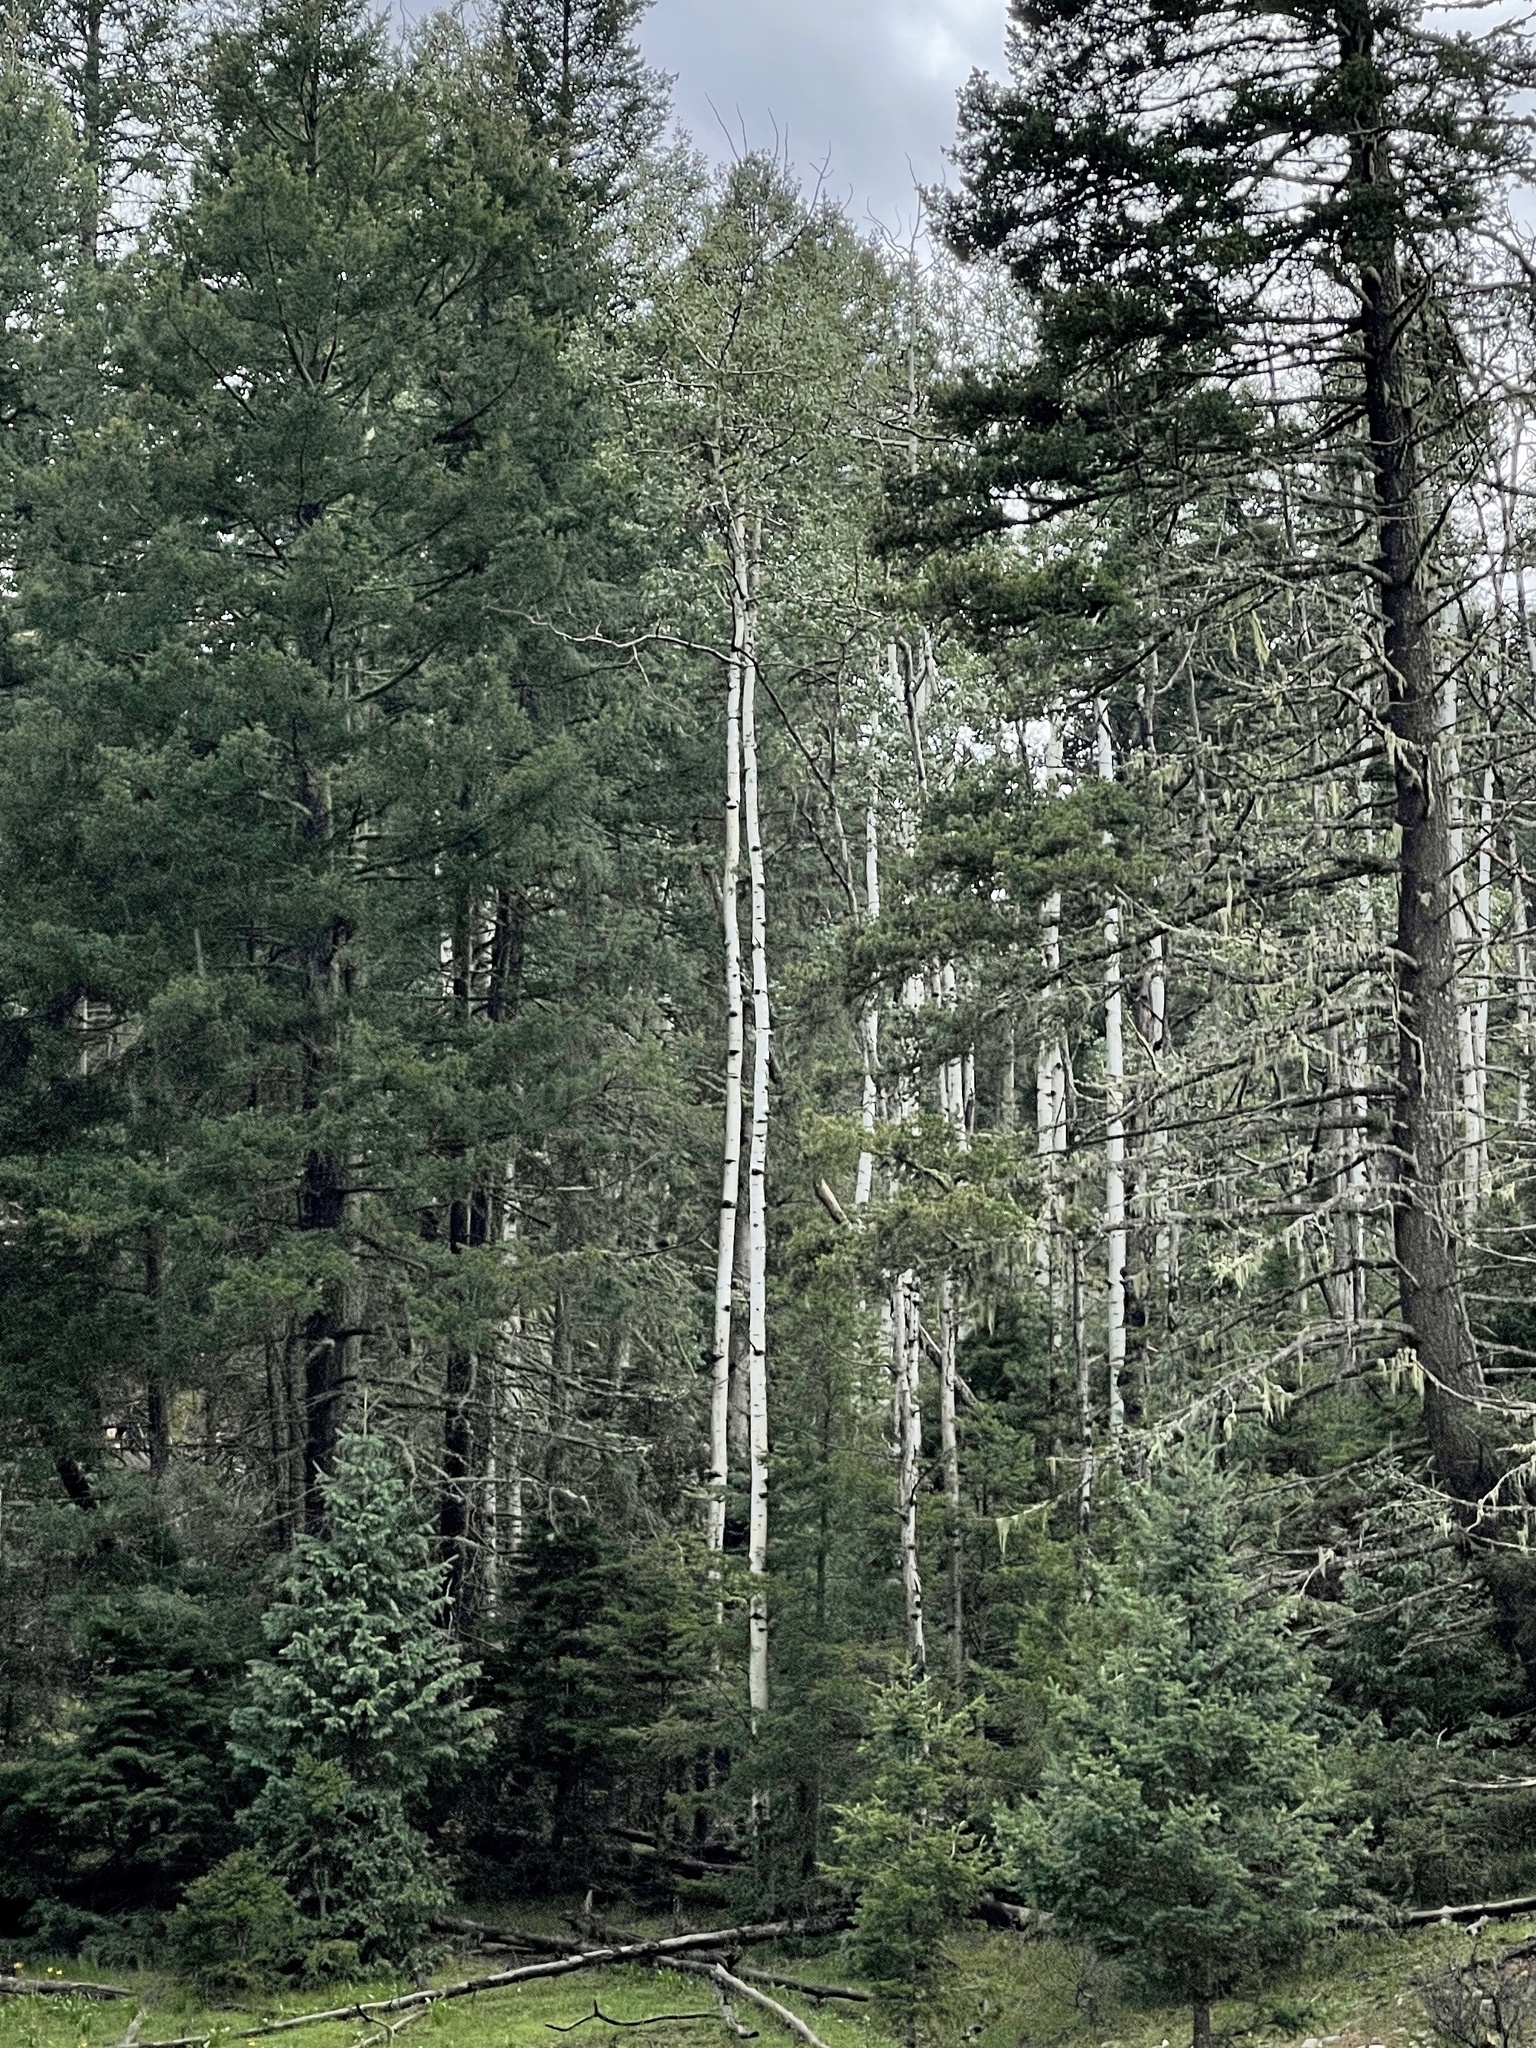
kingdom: Plantae
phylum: Tracheophyta
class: Magnoliopsida
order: Malpighiales
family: Salicaceae
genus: Populus
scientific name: Populus tremuloides
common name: Quaking aspen
